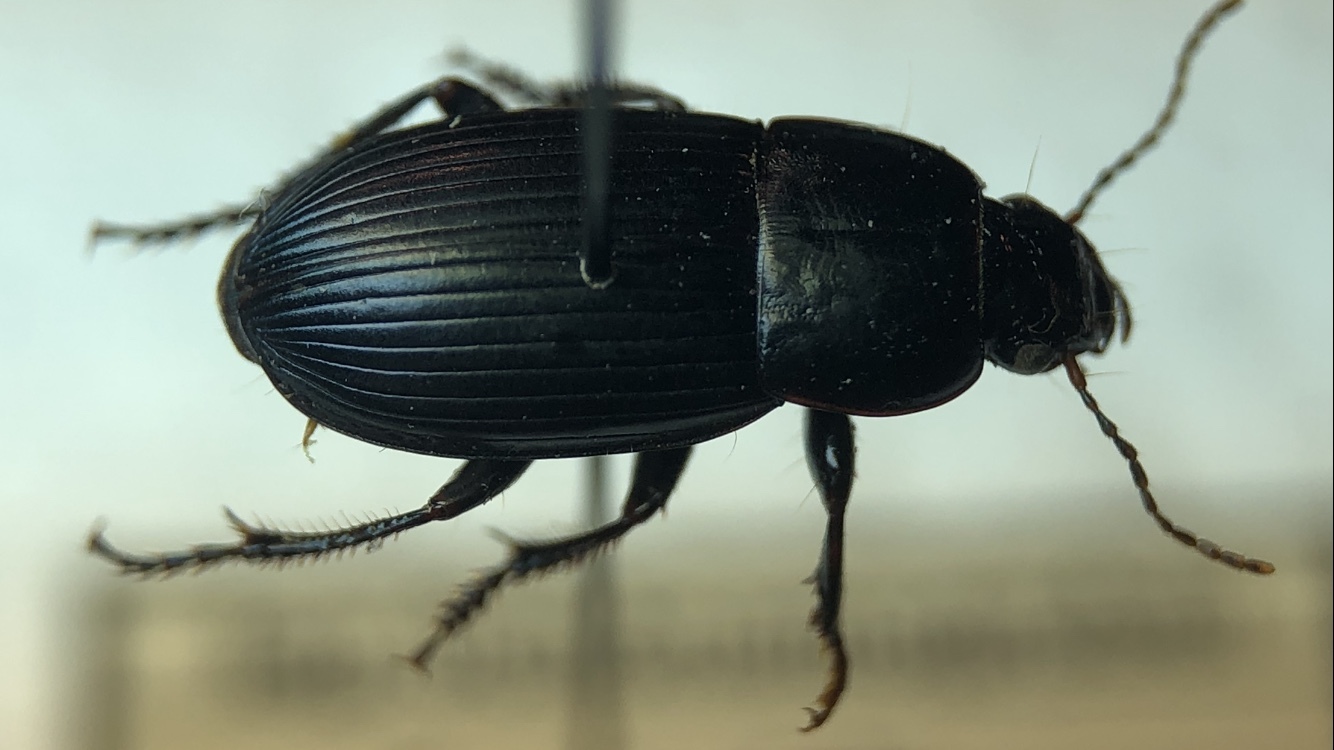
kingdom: Animalia
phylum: Arthropoda
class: Insecta
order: Coleoptera
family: Carabidae
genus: Harpalus
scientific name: Harpalus serripes
